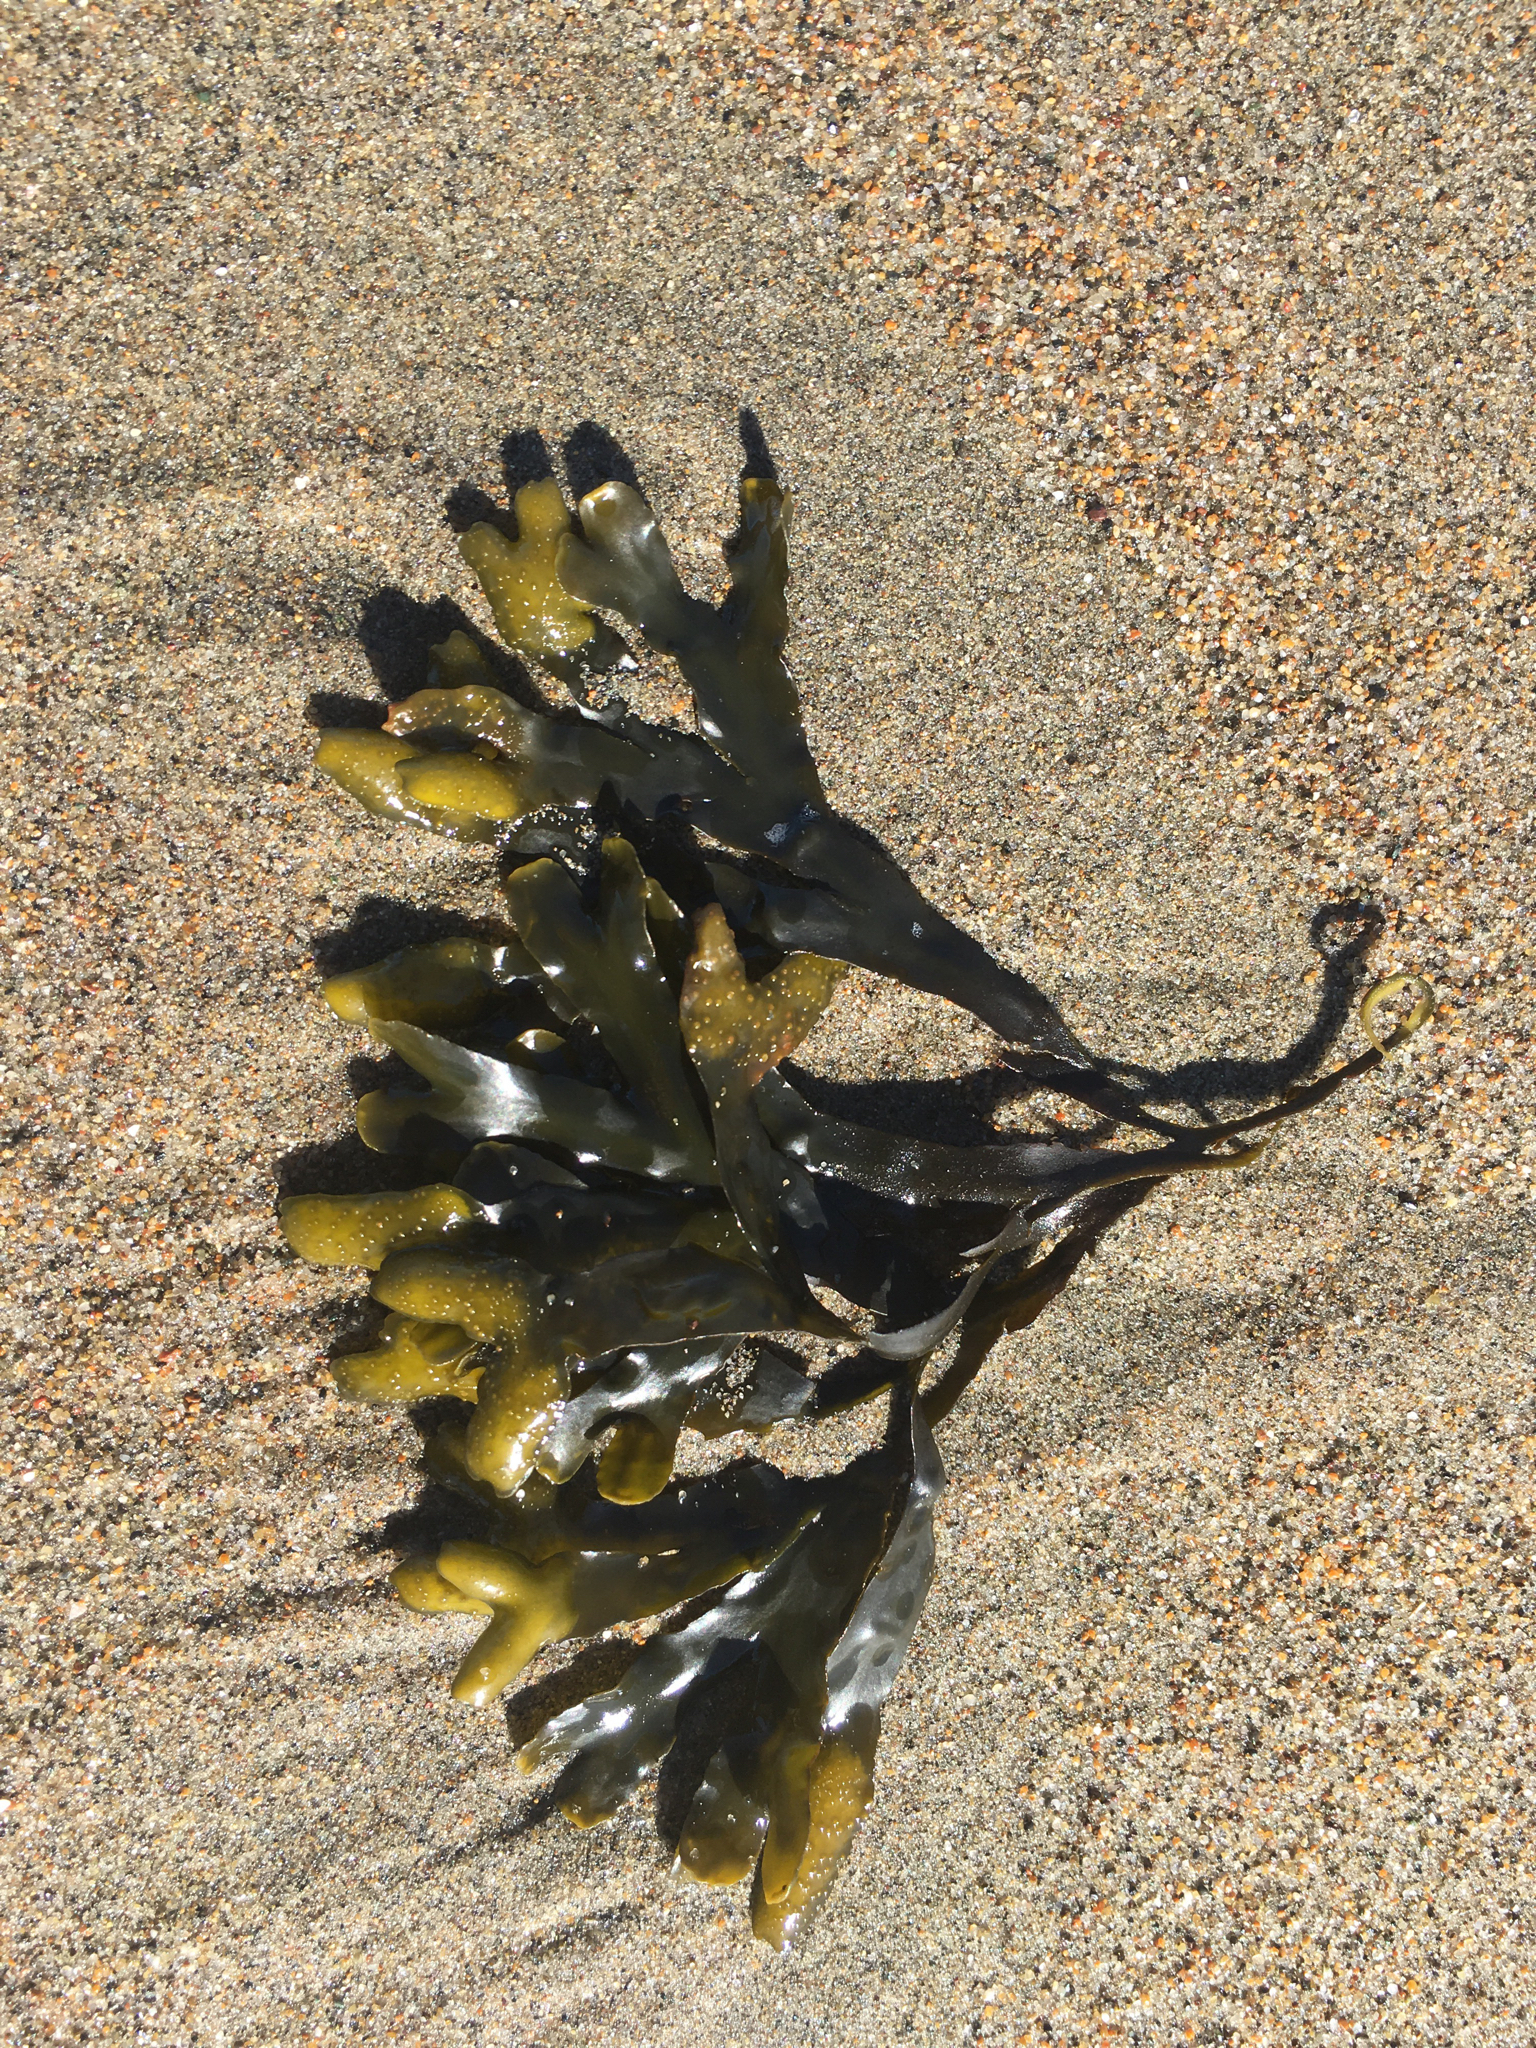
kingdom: Chromista
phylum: Ochrophyta
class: Phaeophyceae
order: Fucales
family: Fucaceae
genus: Fucus
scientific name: Fucus distichus
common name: Rockweed
